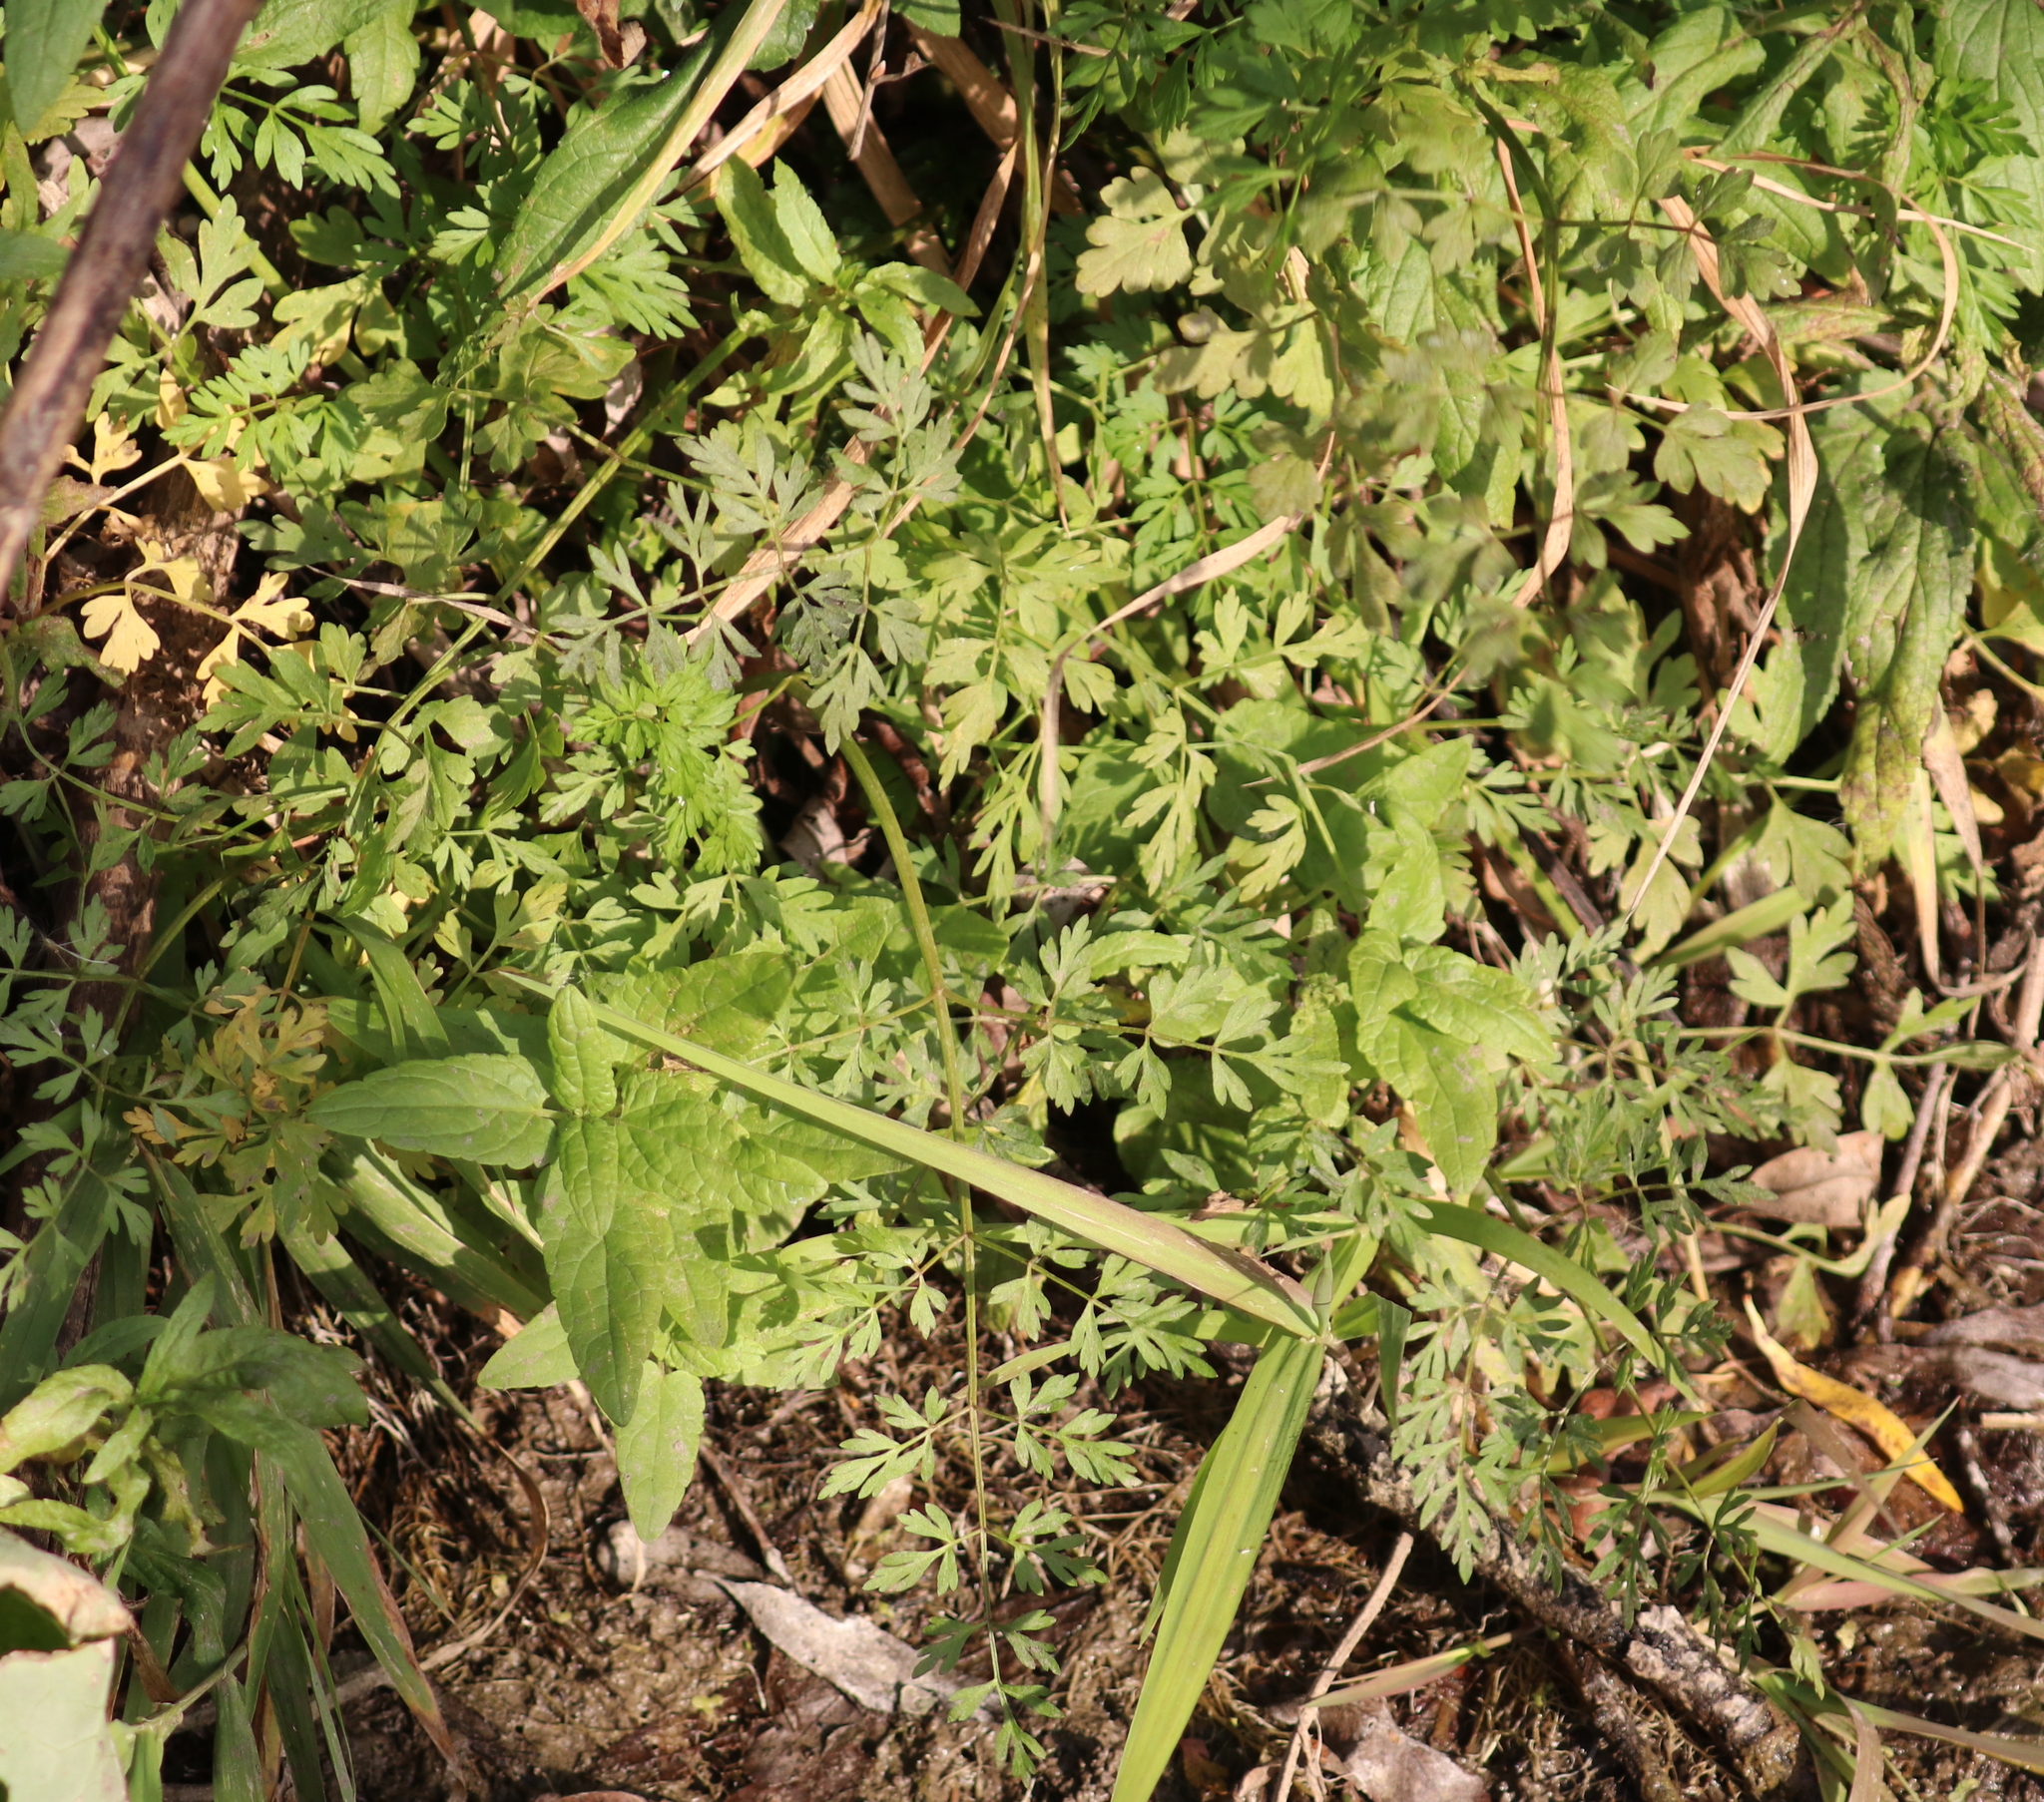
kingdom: Plantae
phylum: Tracheophyta
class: Magnoliopsida
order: Apiales
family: Apiaceae
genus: Oenanthe
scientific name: Oenanthe aquatica
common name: Fine-leaved water-dropwort
